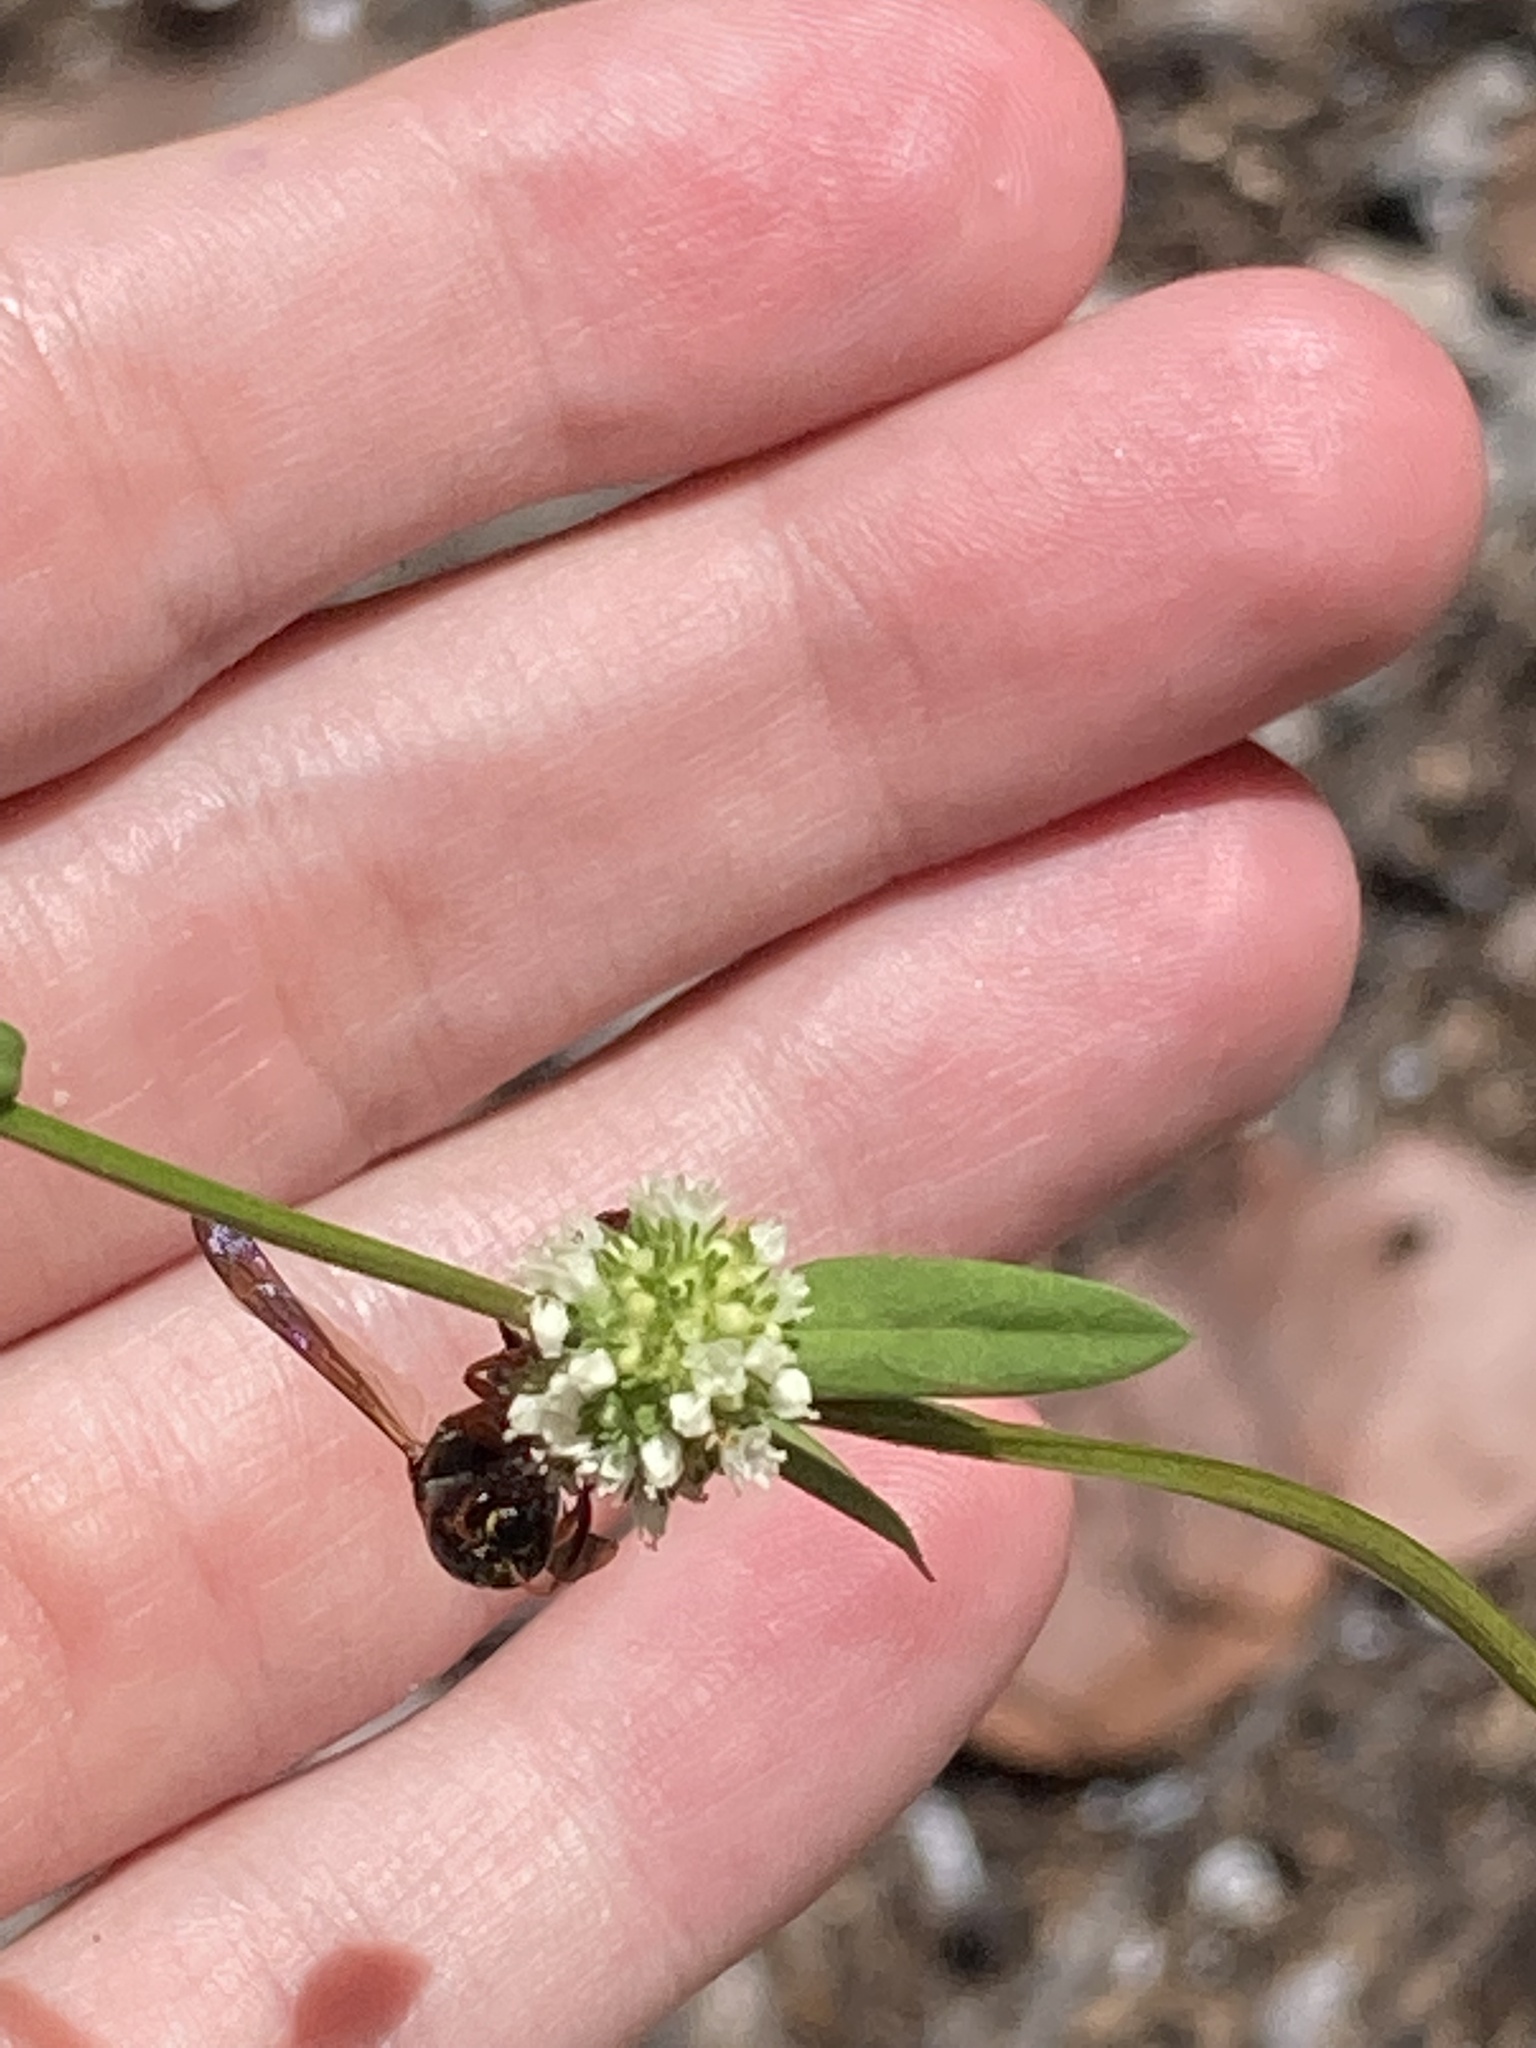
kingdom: Animalia
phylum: Arthropoda
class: Insecta
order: Hymenoptera
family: Eumenidae
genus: Zethus
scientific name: Zethus slossonae
